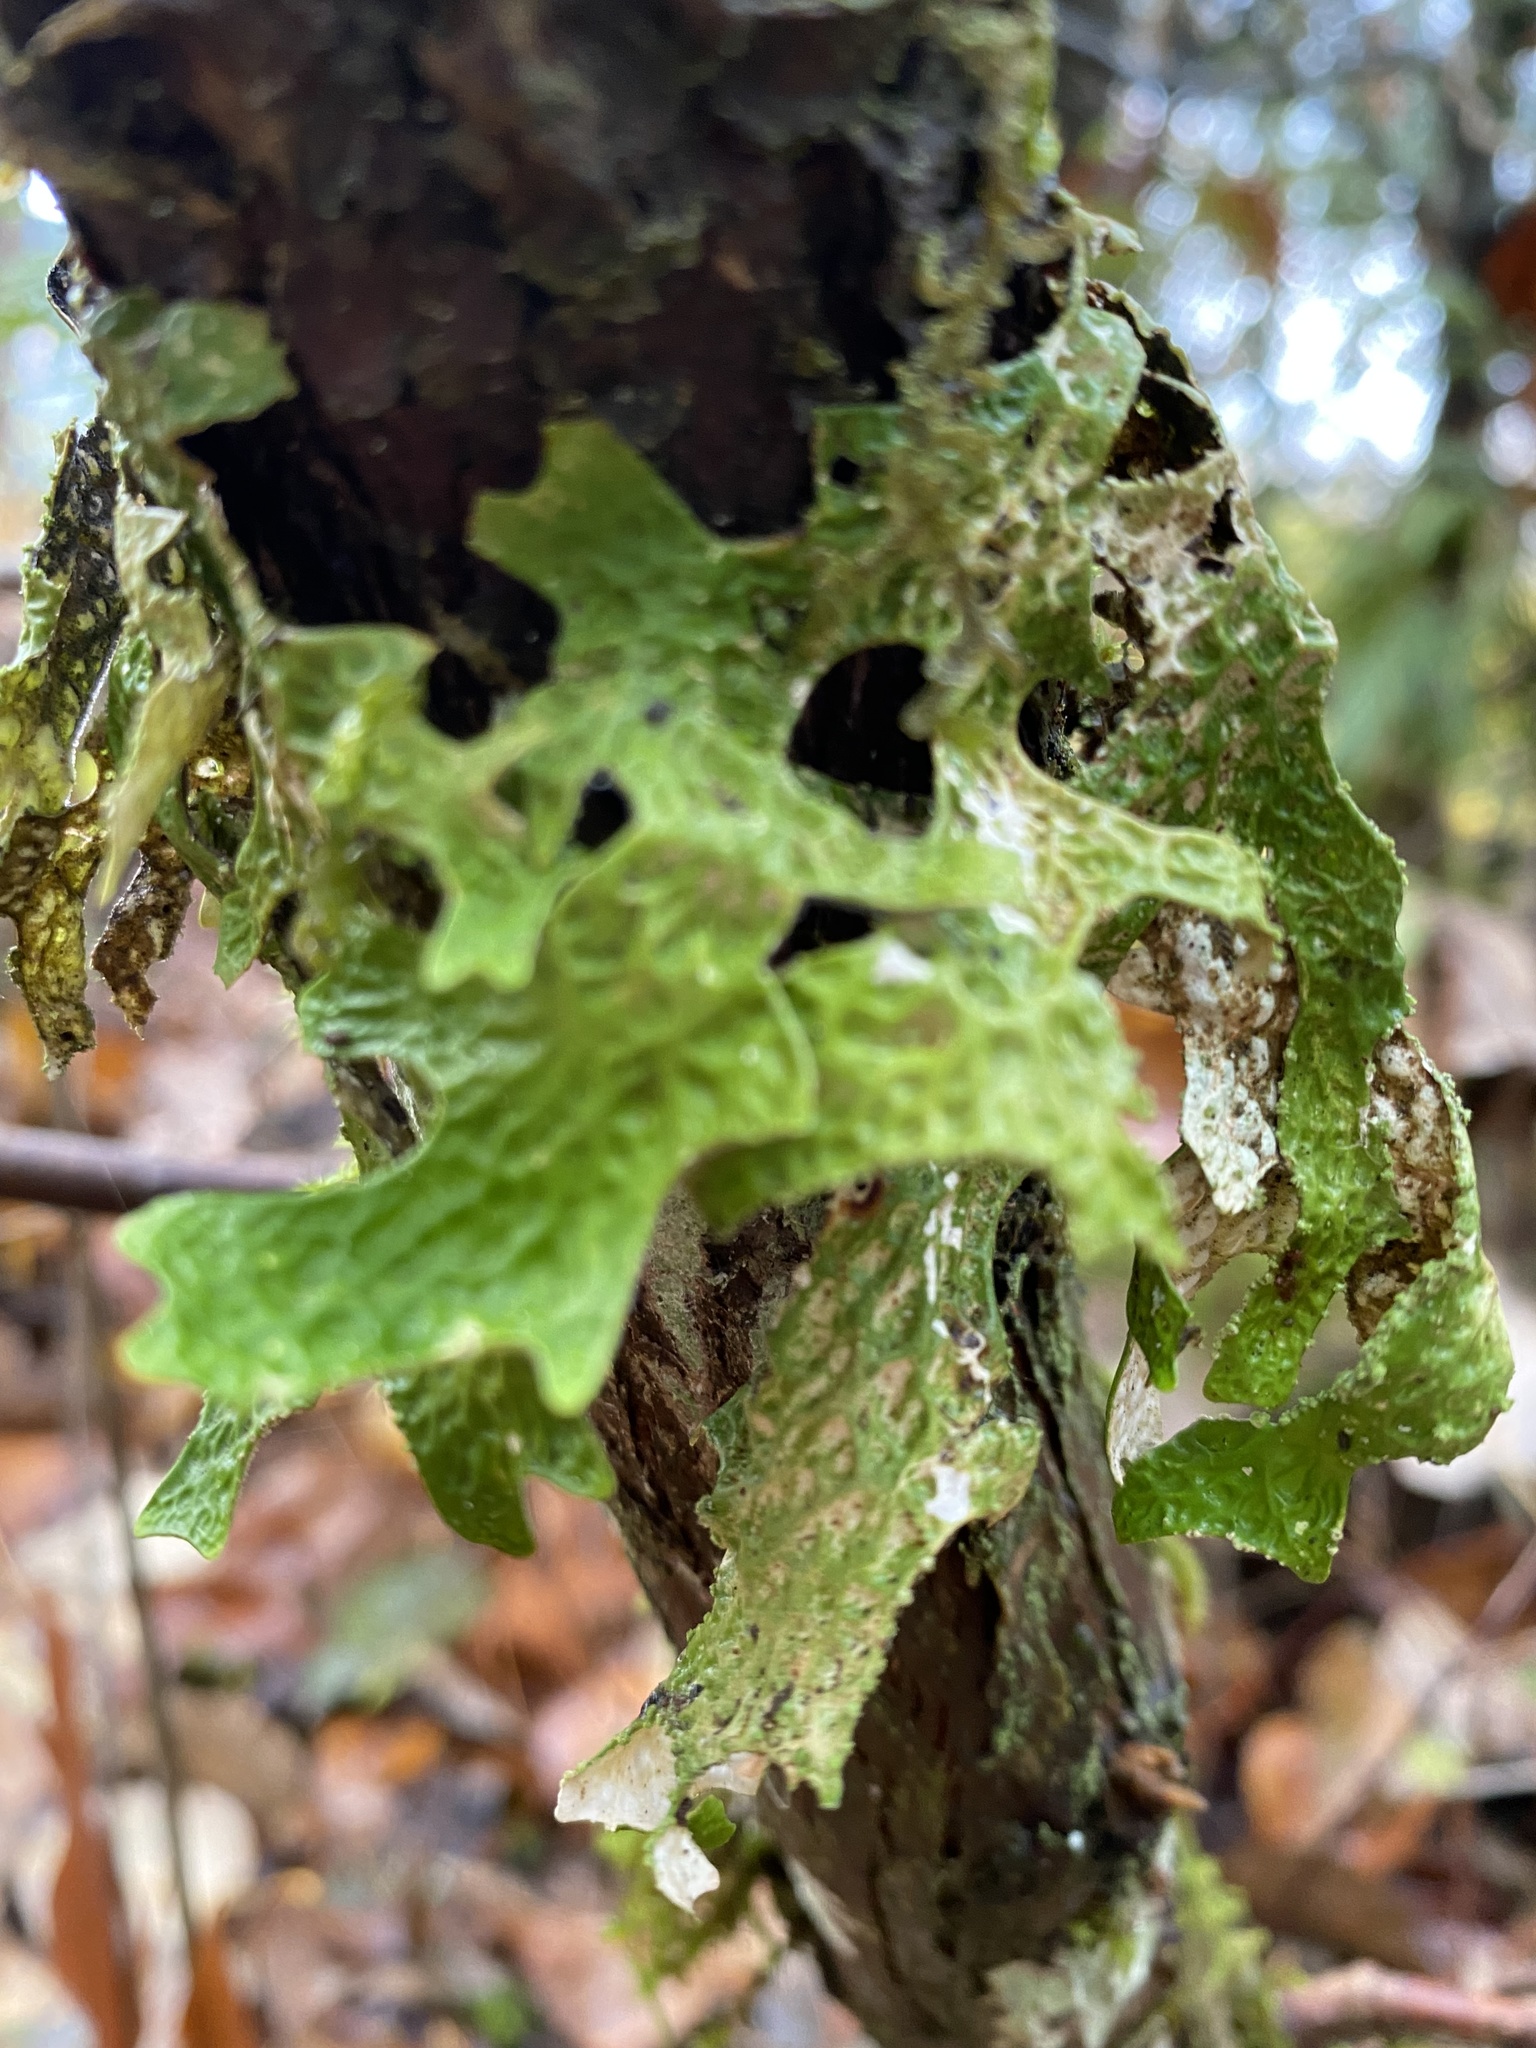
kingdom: Fungi
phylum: Ascomycota
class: Lecanoromycetes
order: Peltigerales
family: Lobariaceae
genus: Lobaria
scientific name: Lobaria pulmonaria
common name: Lungwort
